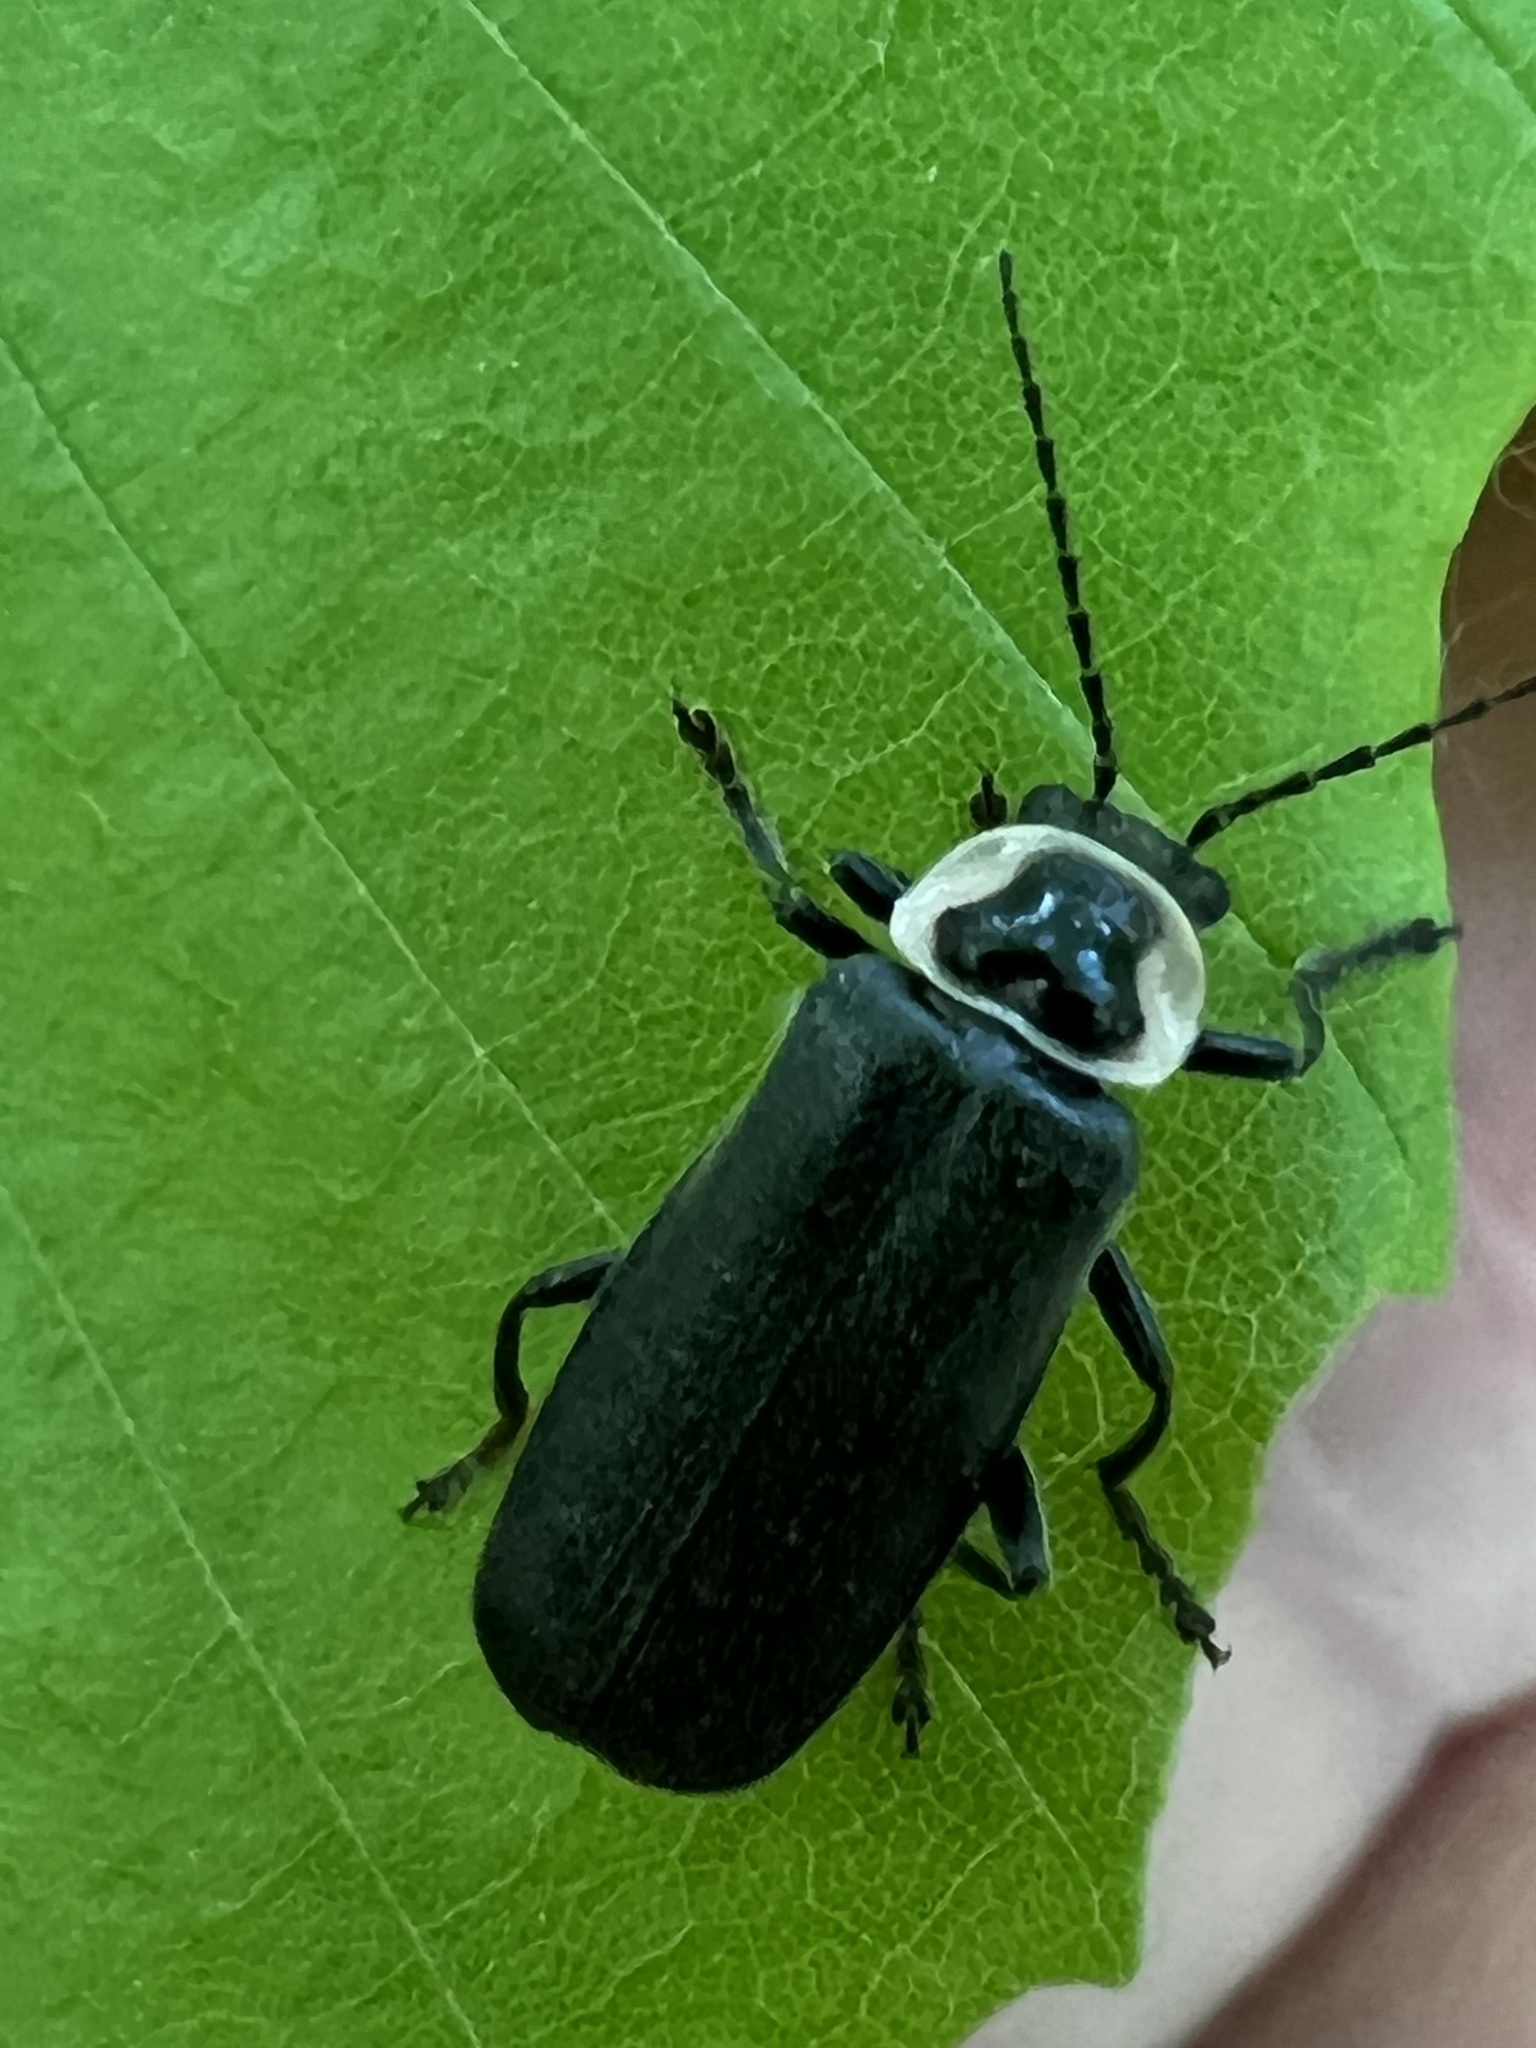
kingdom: Animalia
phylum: Arthropoda
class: Insecta
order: Coleoptera
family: Cantharidae
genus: Atalantycha
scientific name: Atalantycha neglecta
